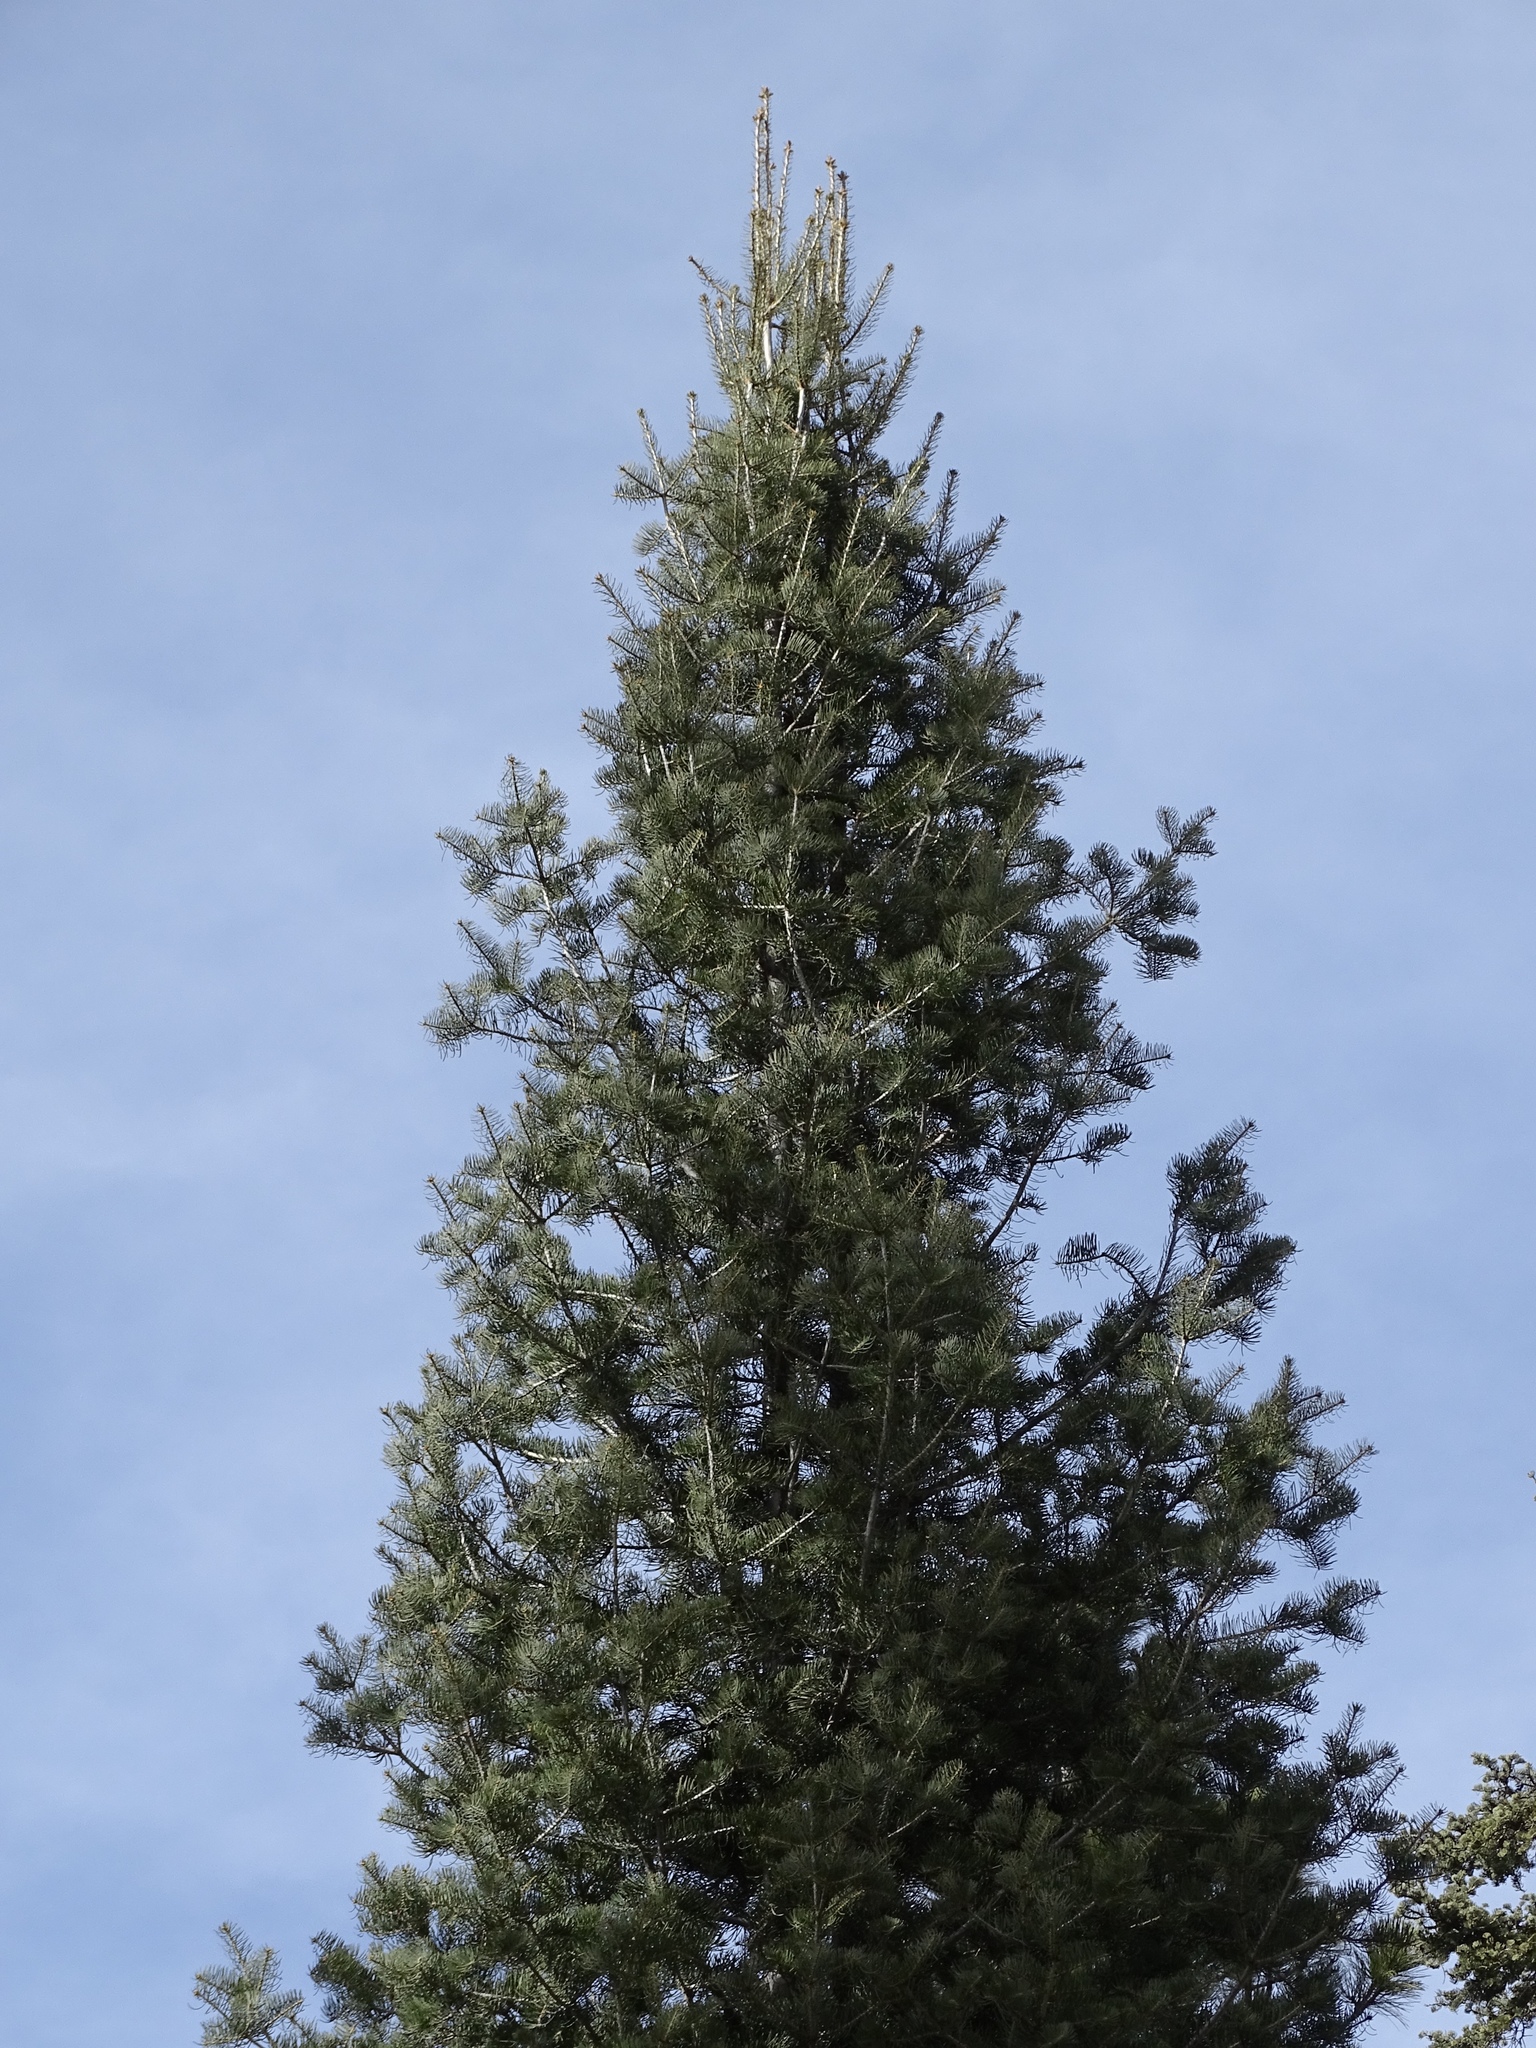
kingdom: Plantae
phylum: Tracheophyta
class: Pinopsida
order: Pinales
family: Pinaceae
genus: Abies
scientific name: Abies concolor
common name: Colorado fir
